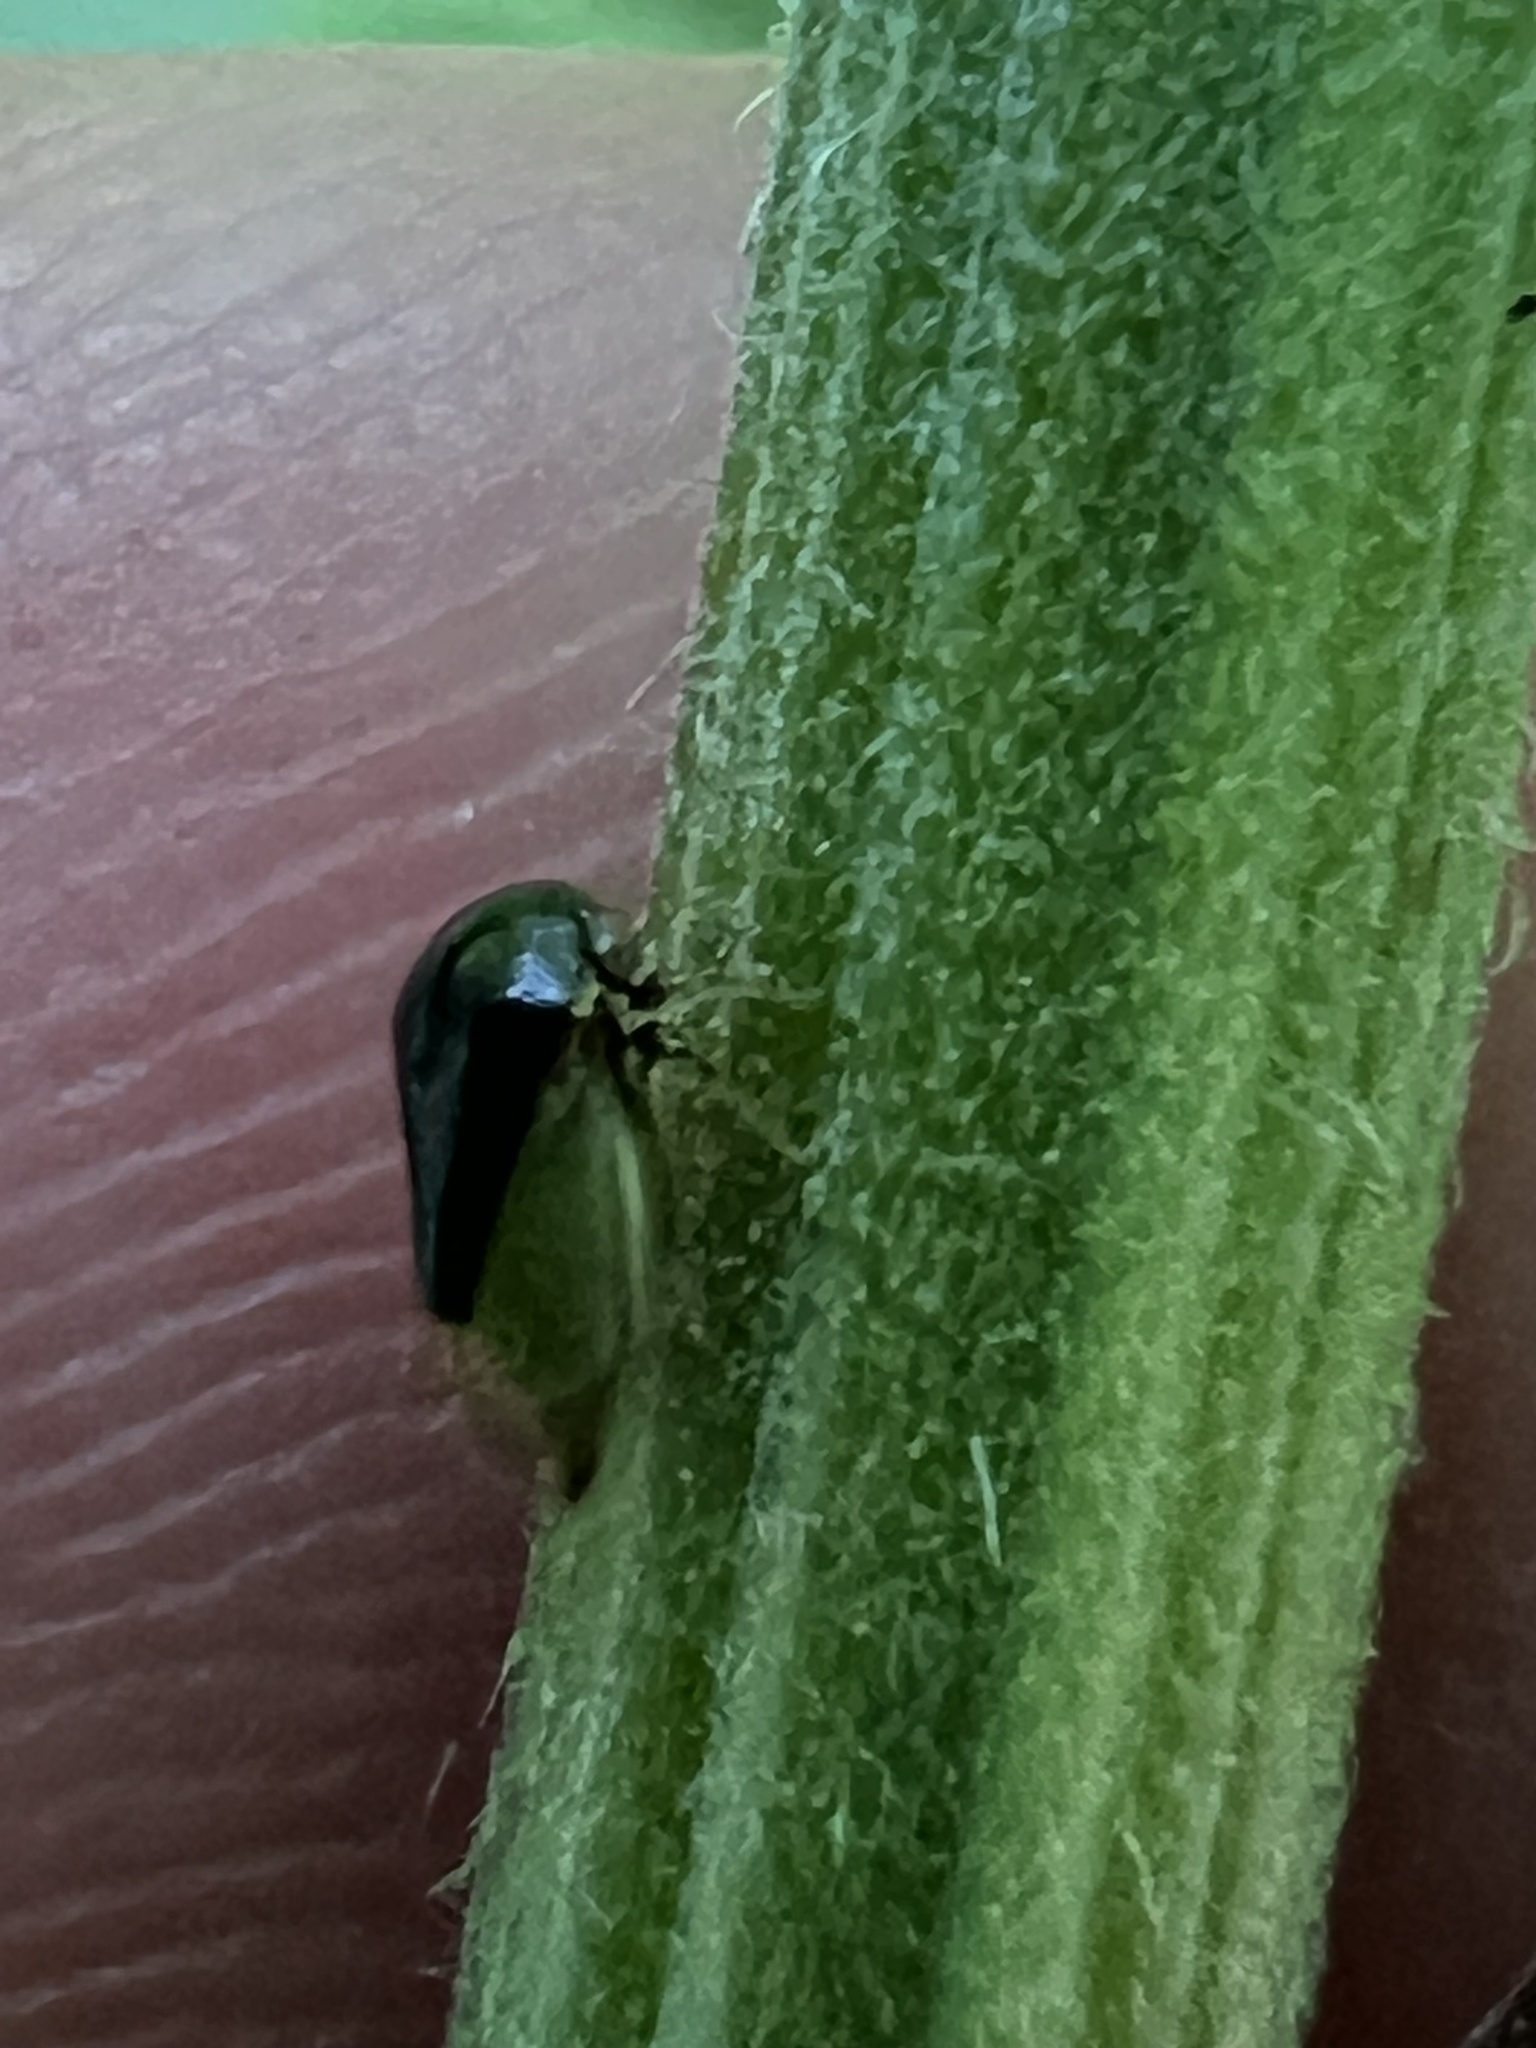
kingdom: Animalia
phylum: Arthropoda
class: Insecta
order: Hemiptera
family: Membracidae
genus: Micrutalis
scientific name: Micrutalis calva
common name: Honeylocust treehopper
